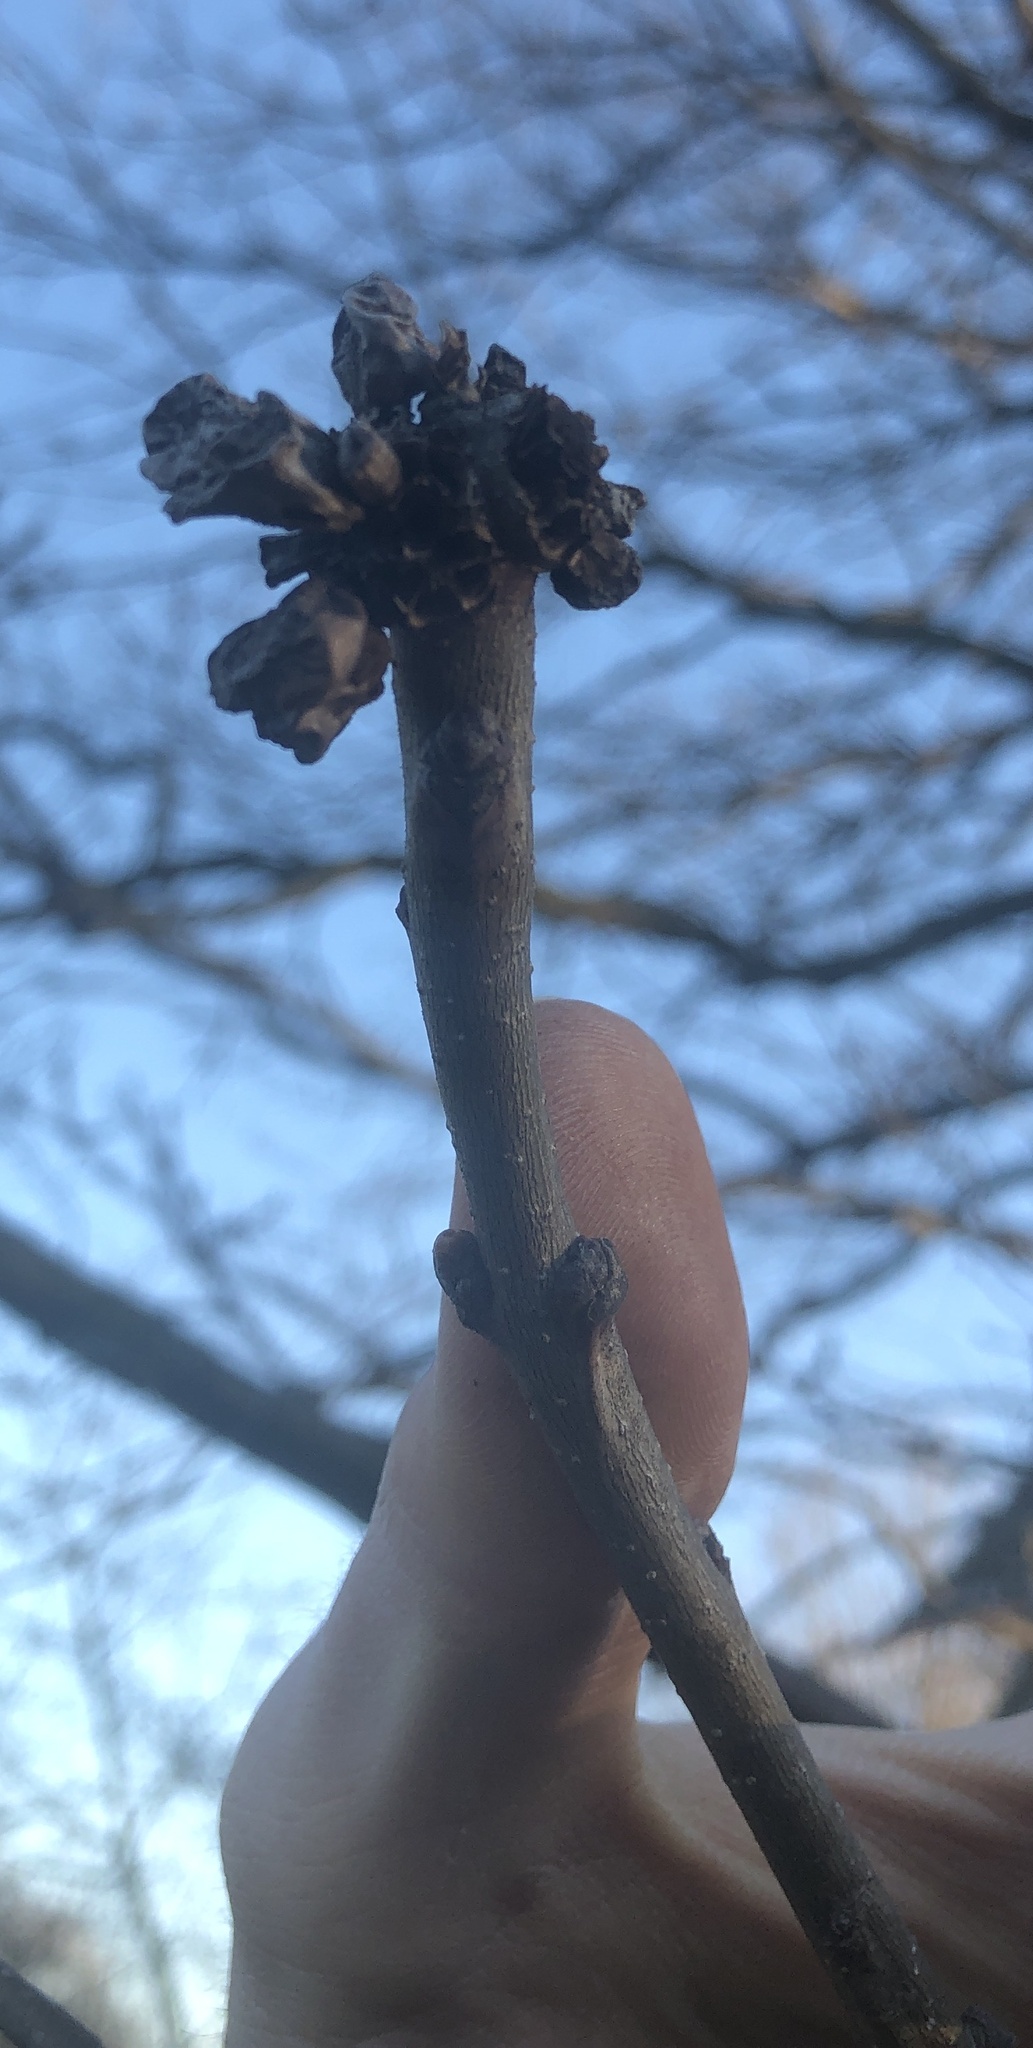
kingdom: Animalia
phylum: Arthropoda
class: Insecta
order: Hymenoptera
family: Cynipidae
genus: Andricus
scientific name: Andricus
